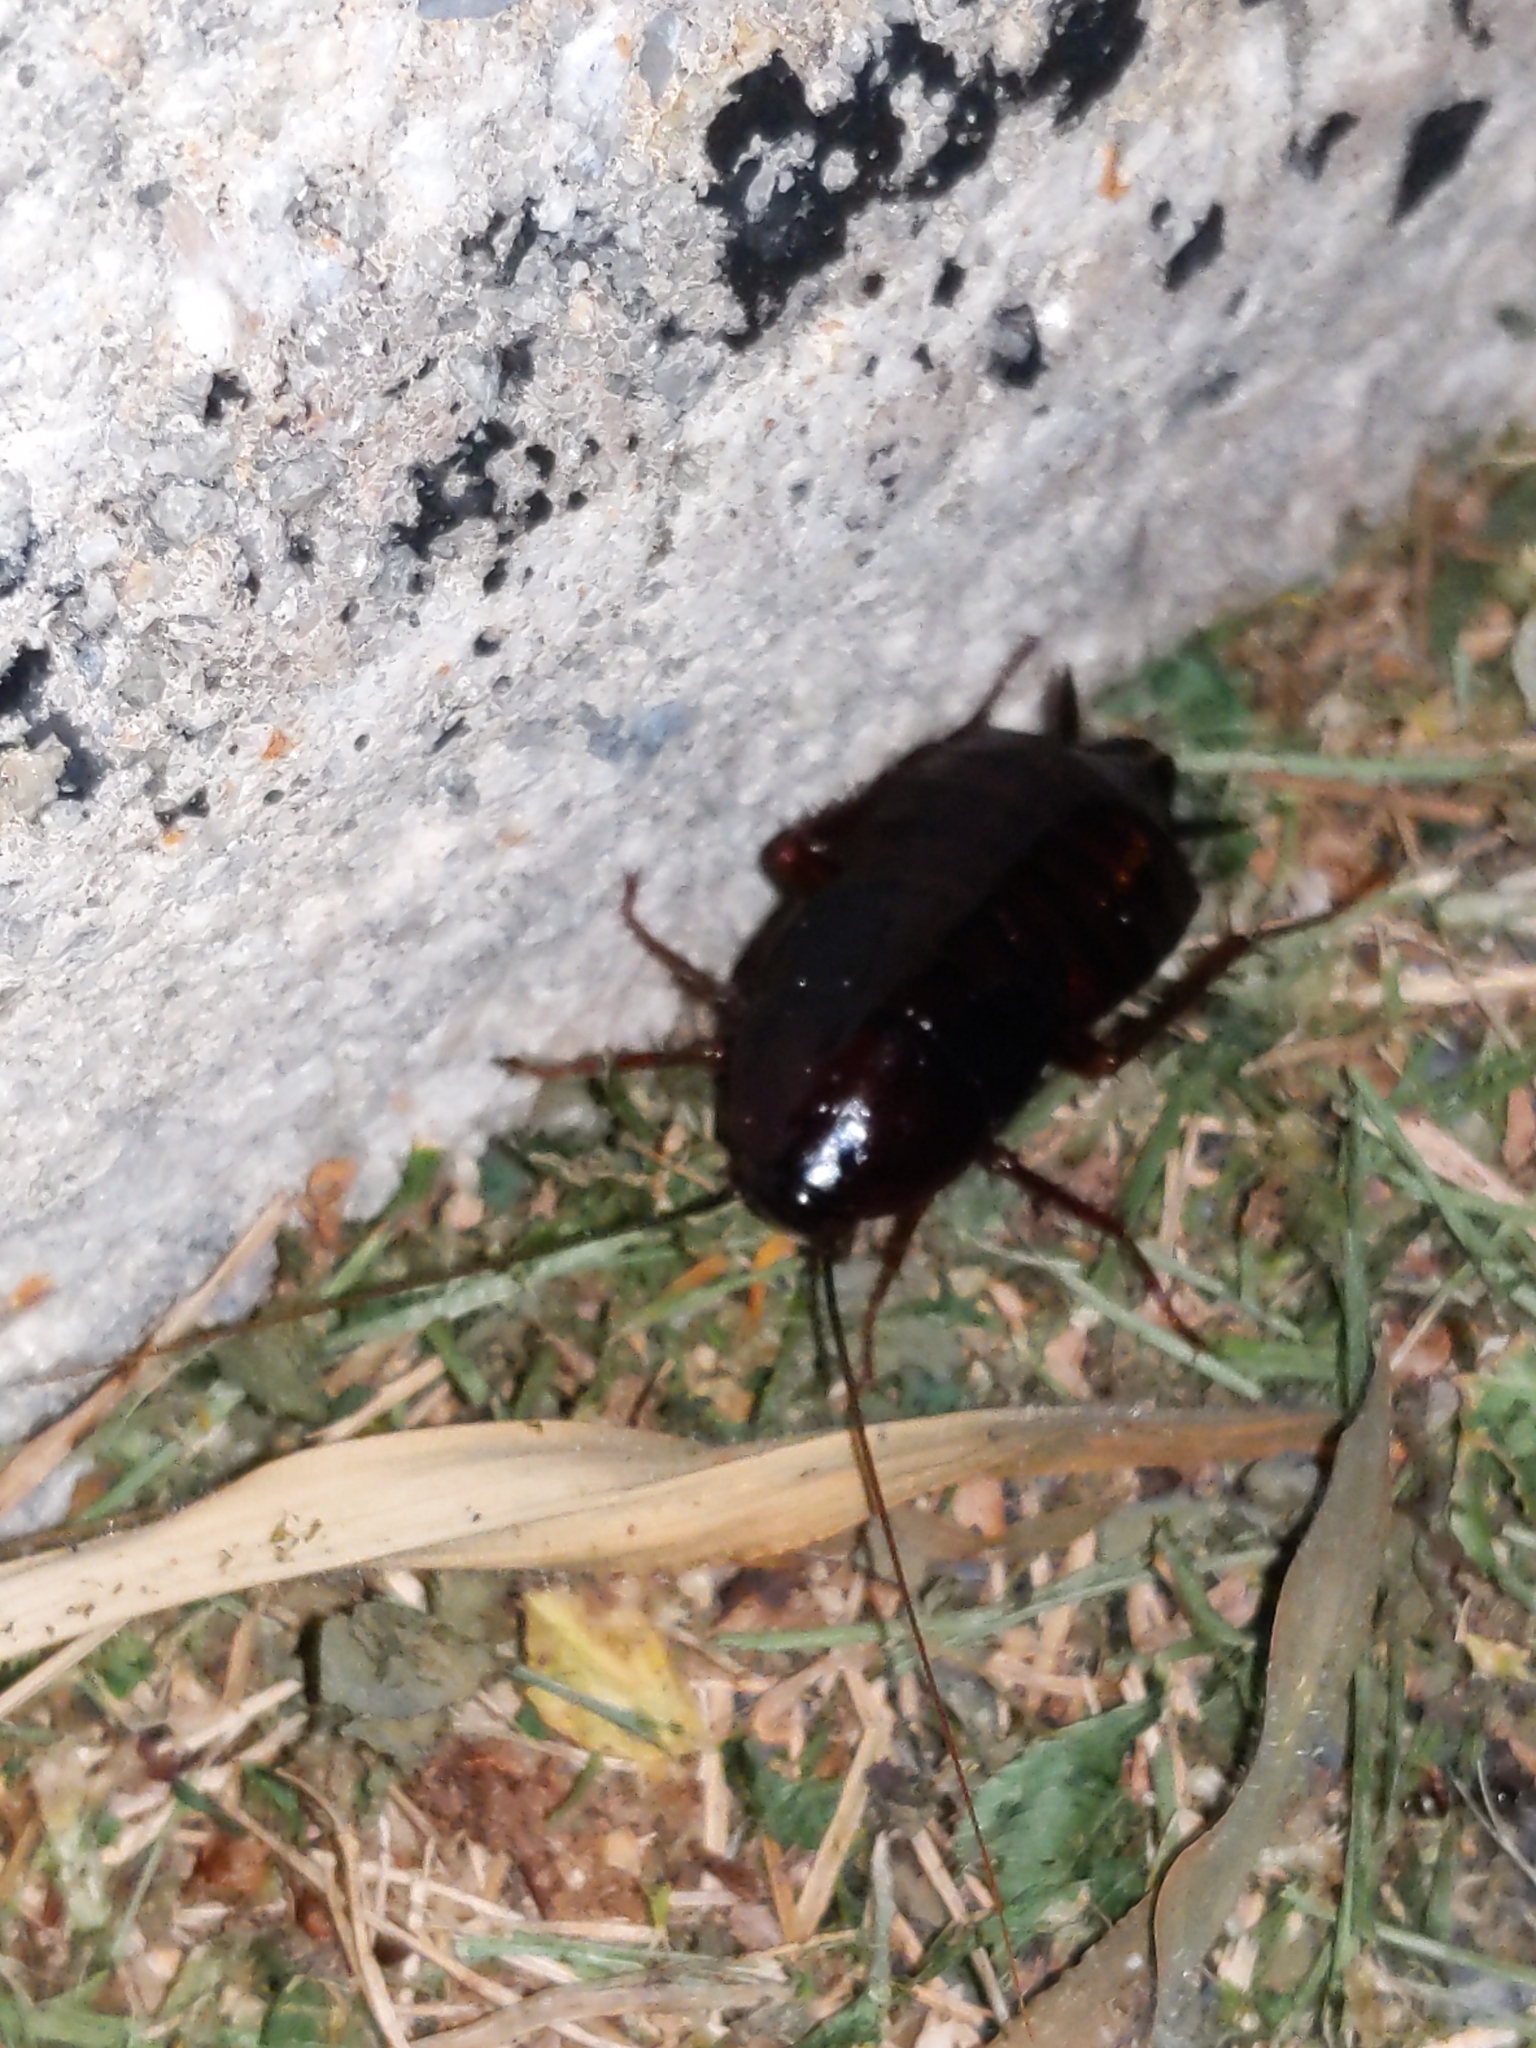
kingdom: Animalia
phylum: Arthropoda
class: Insecta
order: Blattodea
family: Blattidae
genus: Blatta
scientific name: Blatta orientalis
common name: Oriental cockroach
